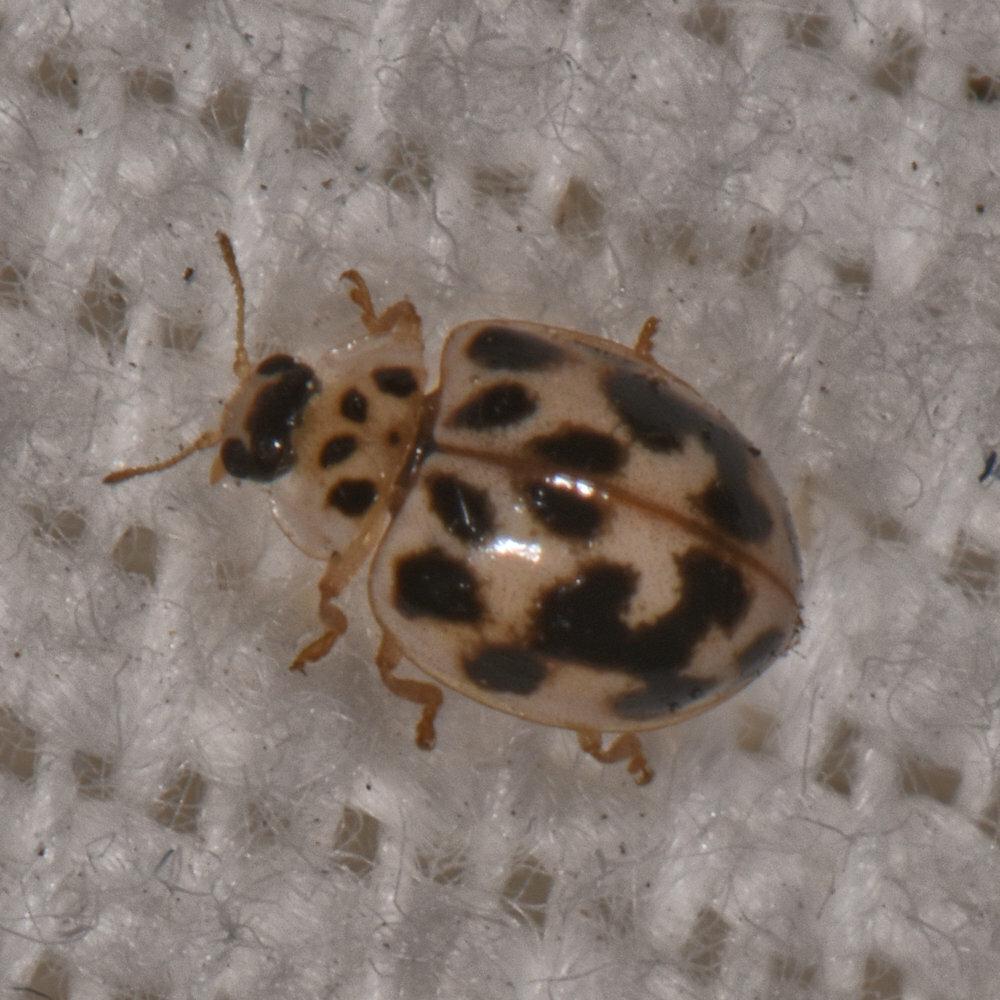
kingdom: Animalia
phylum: Arthropoda
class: Insecta
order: Coleoptera
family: Coccinellidae
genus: Psyllobora
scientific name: Psyllobora vigintimaculata
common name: Ladybird beetle
